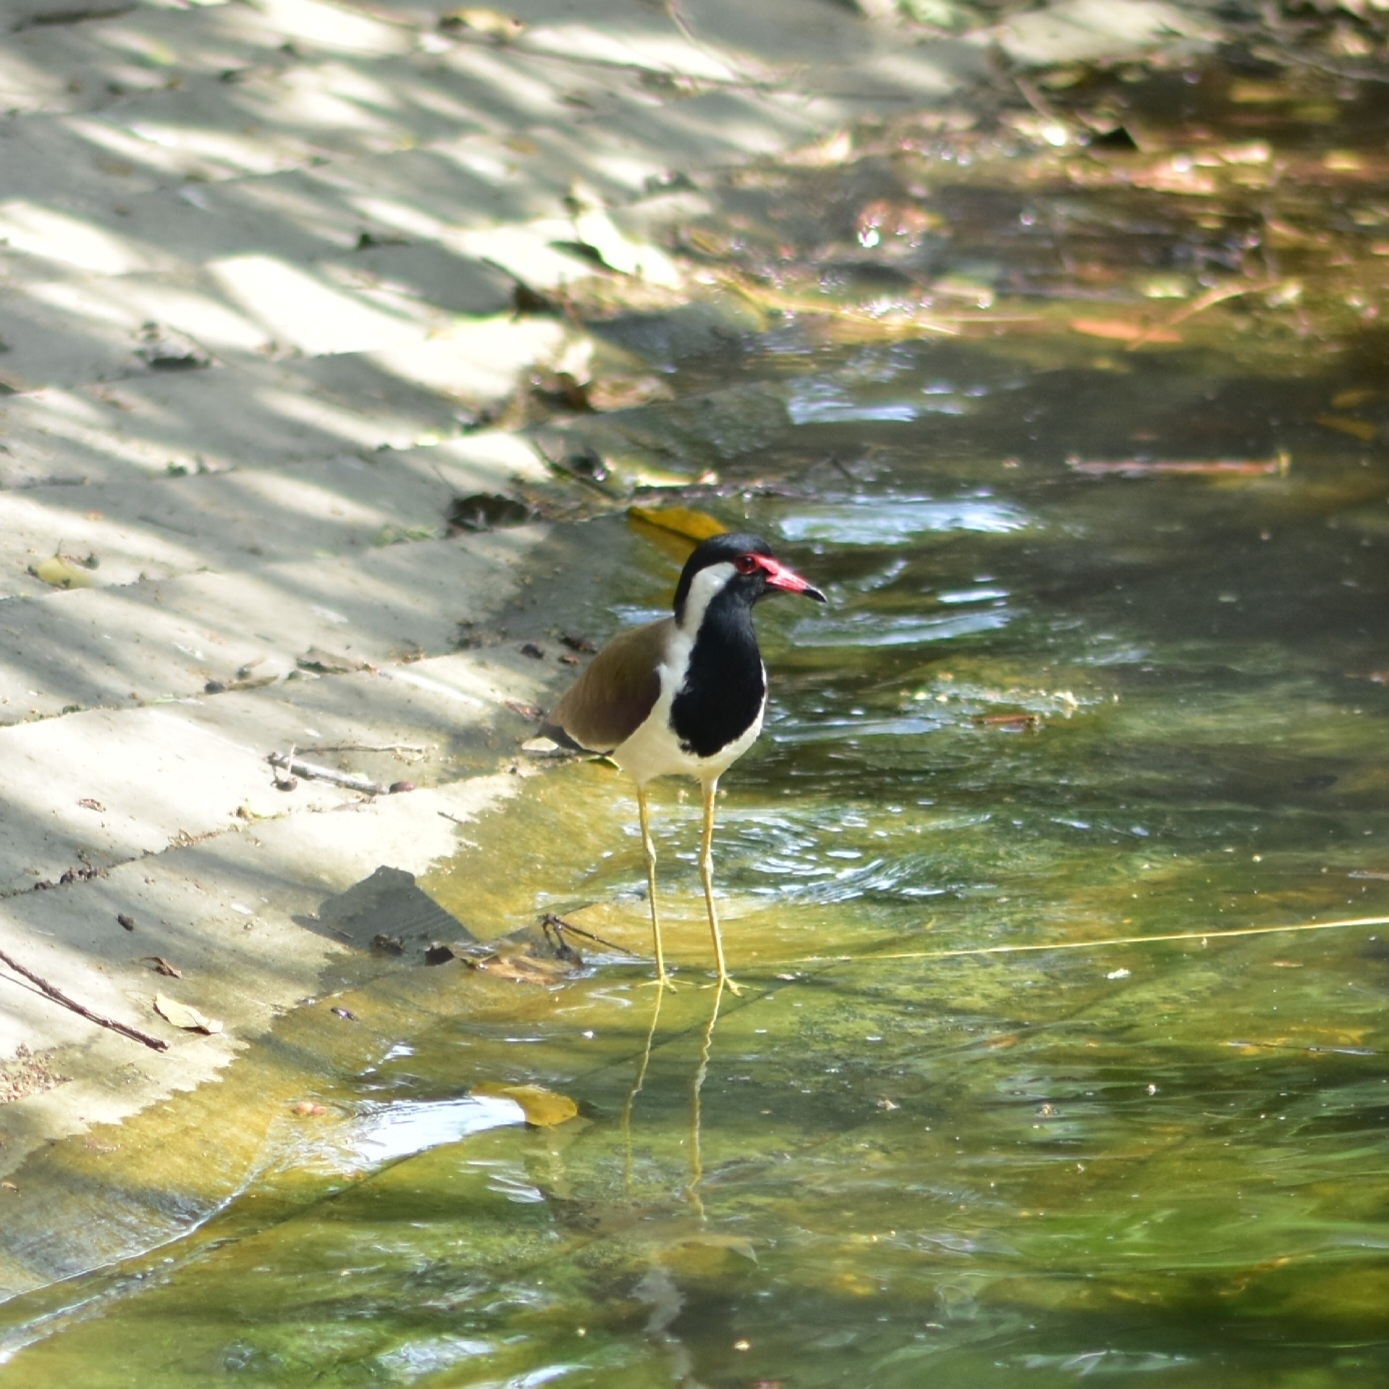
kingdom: Animalia
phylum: Chordata
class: Aves
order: Charadriiformes
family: Charadriidae
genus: Vanellus
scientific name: Vanellus indicus
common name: Red-wattled lapwing
